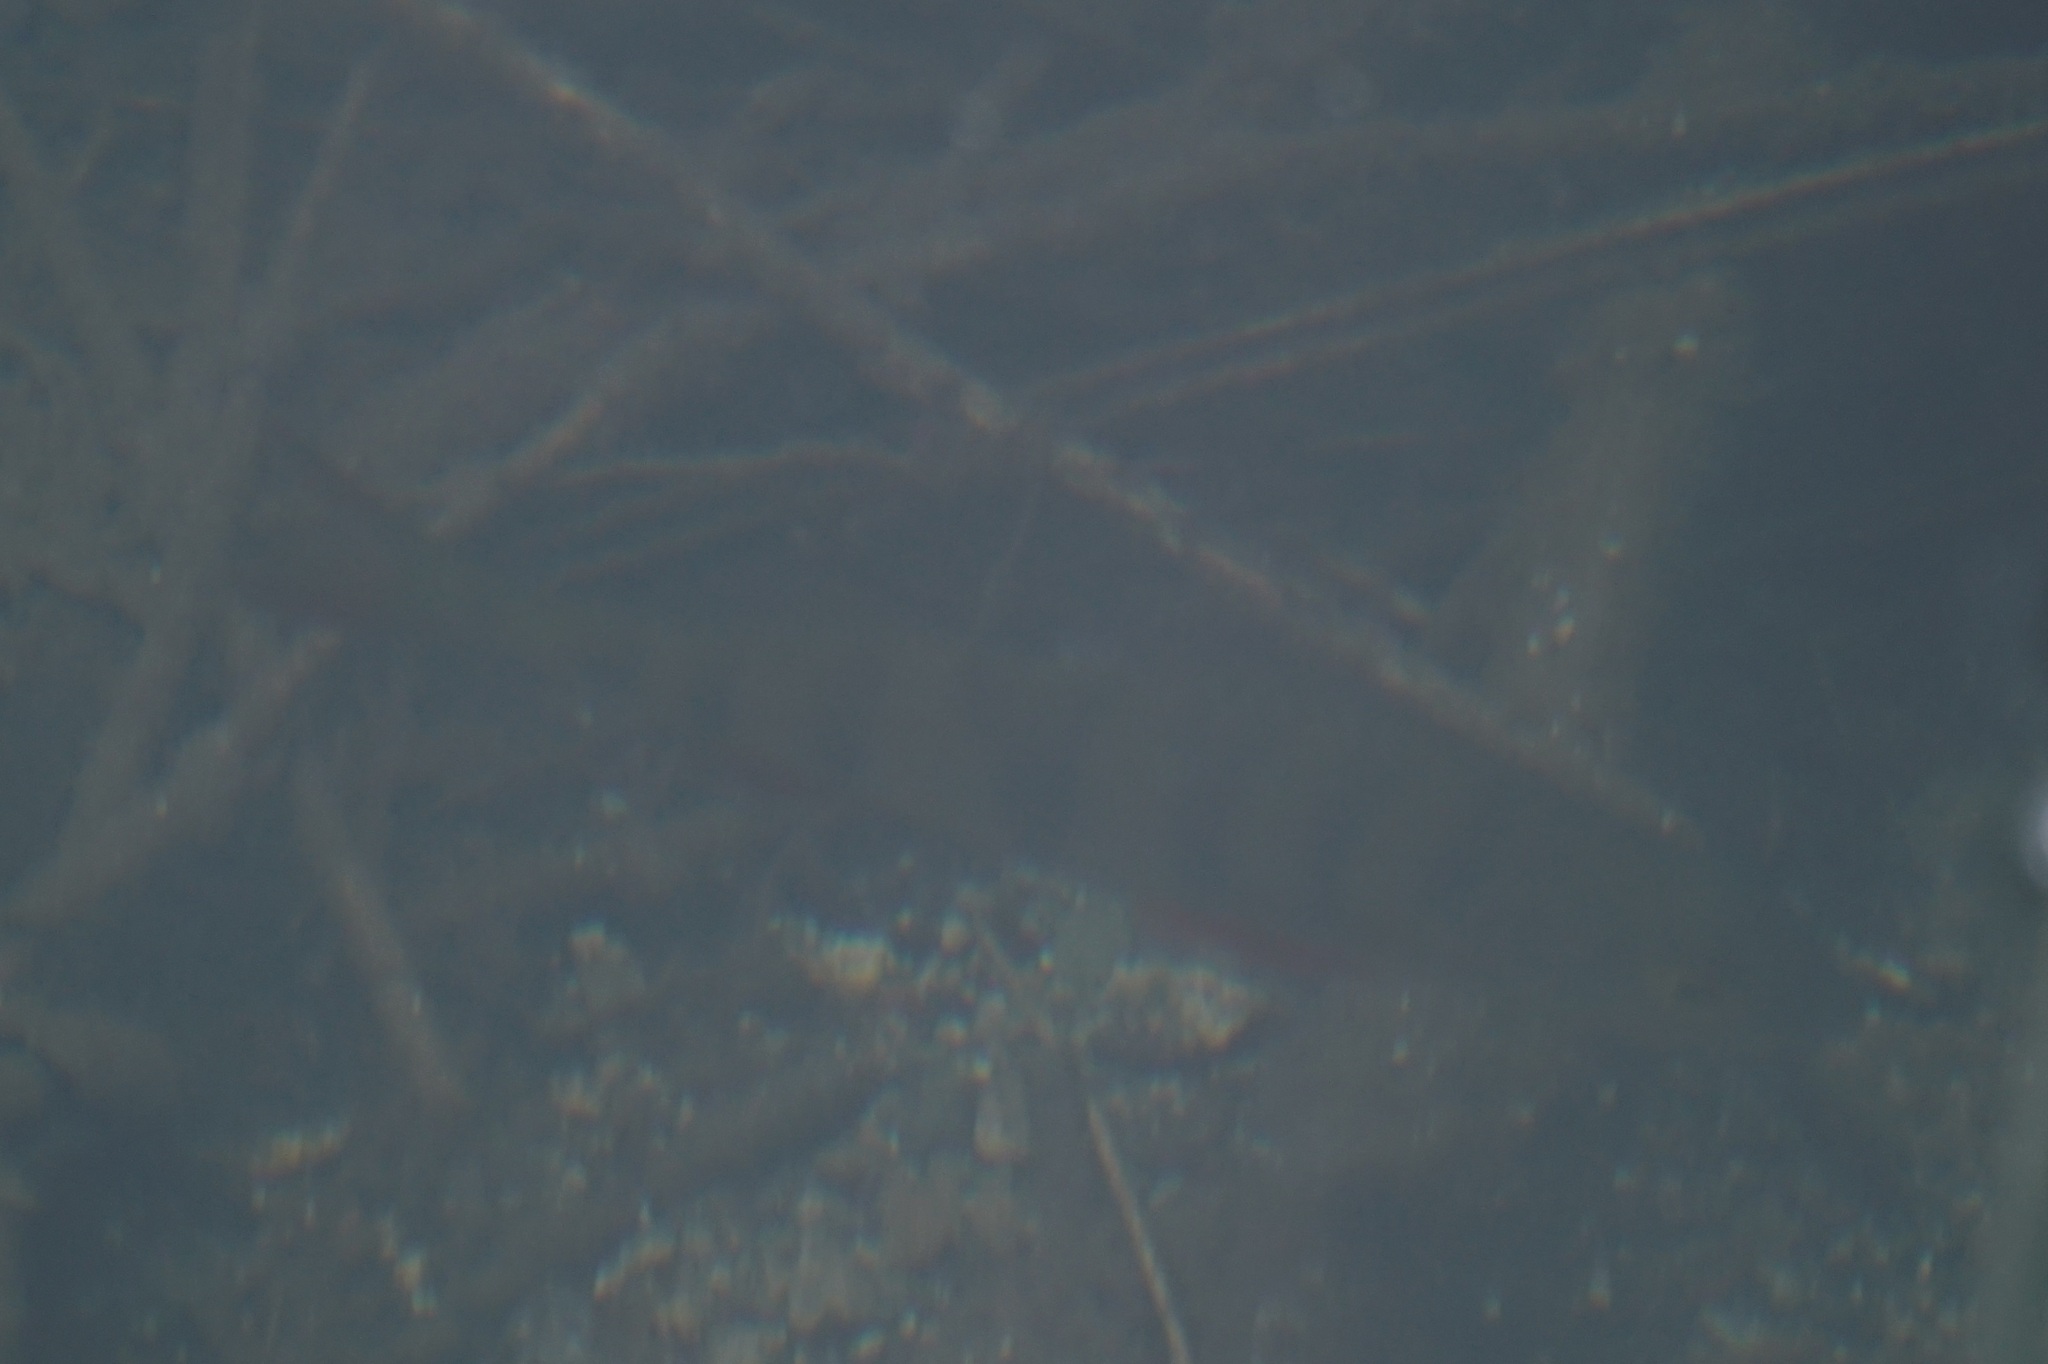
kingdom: Animalia
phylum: Chordata
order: Perciformes
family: Percidae
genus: Perca
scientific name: Perca fluviatilis
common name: Perch
